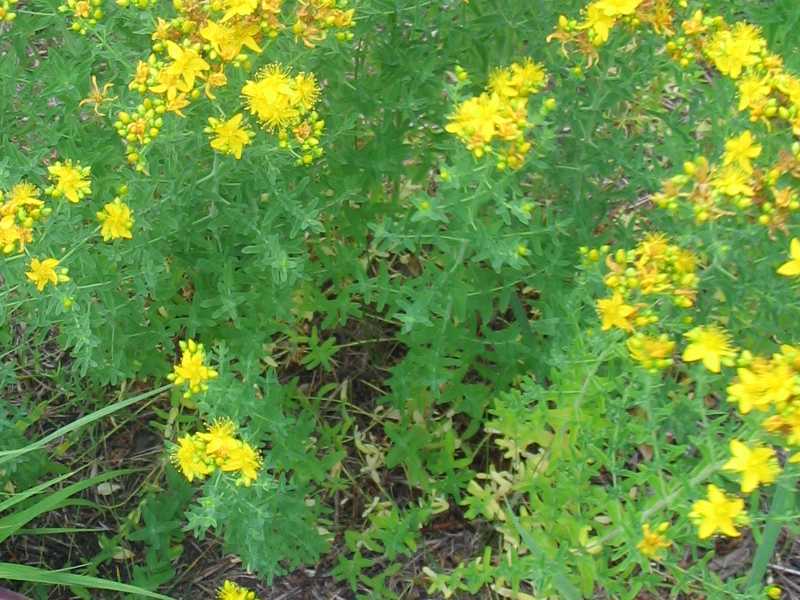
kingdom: Plantae
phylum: Tracheophyta
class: Magnoliopsida
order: Malpighiales
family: Hypericaceae
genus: Hypericum
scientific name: Hypericum perforatum
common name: Common st. johnswort
